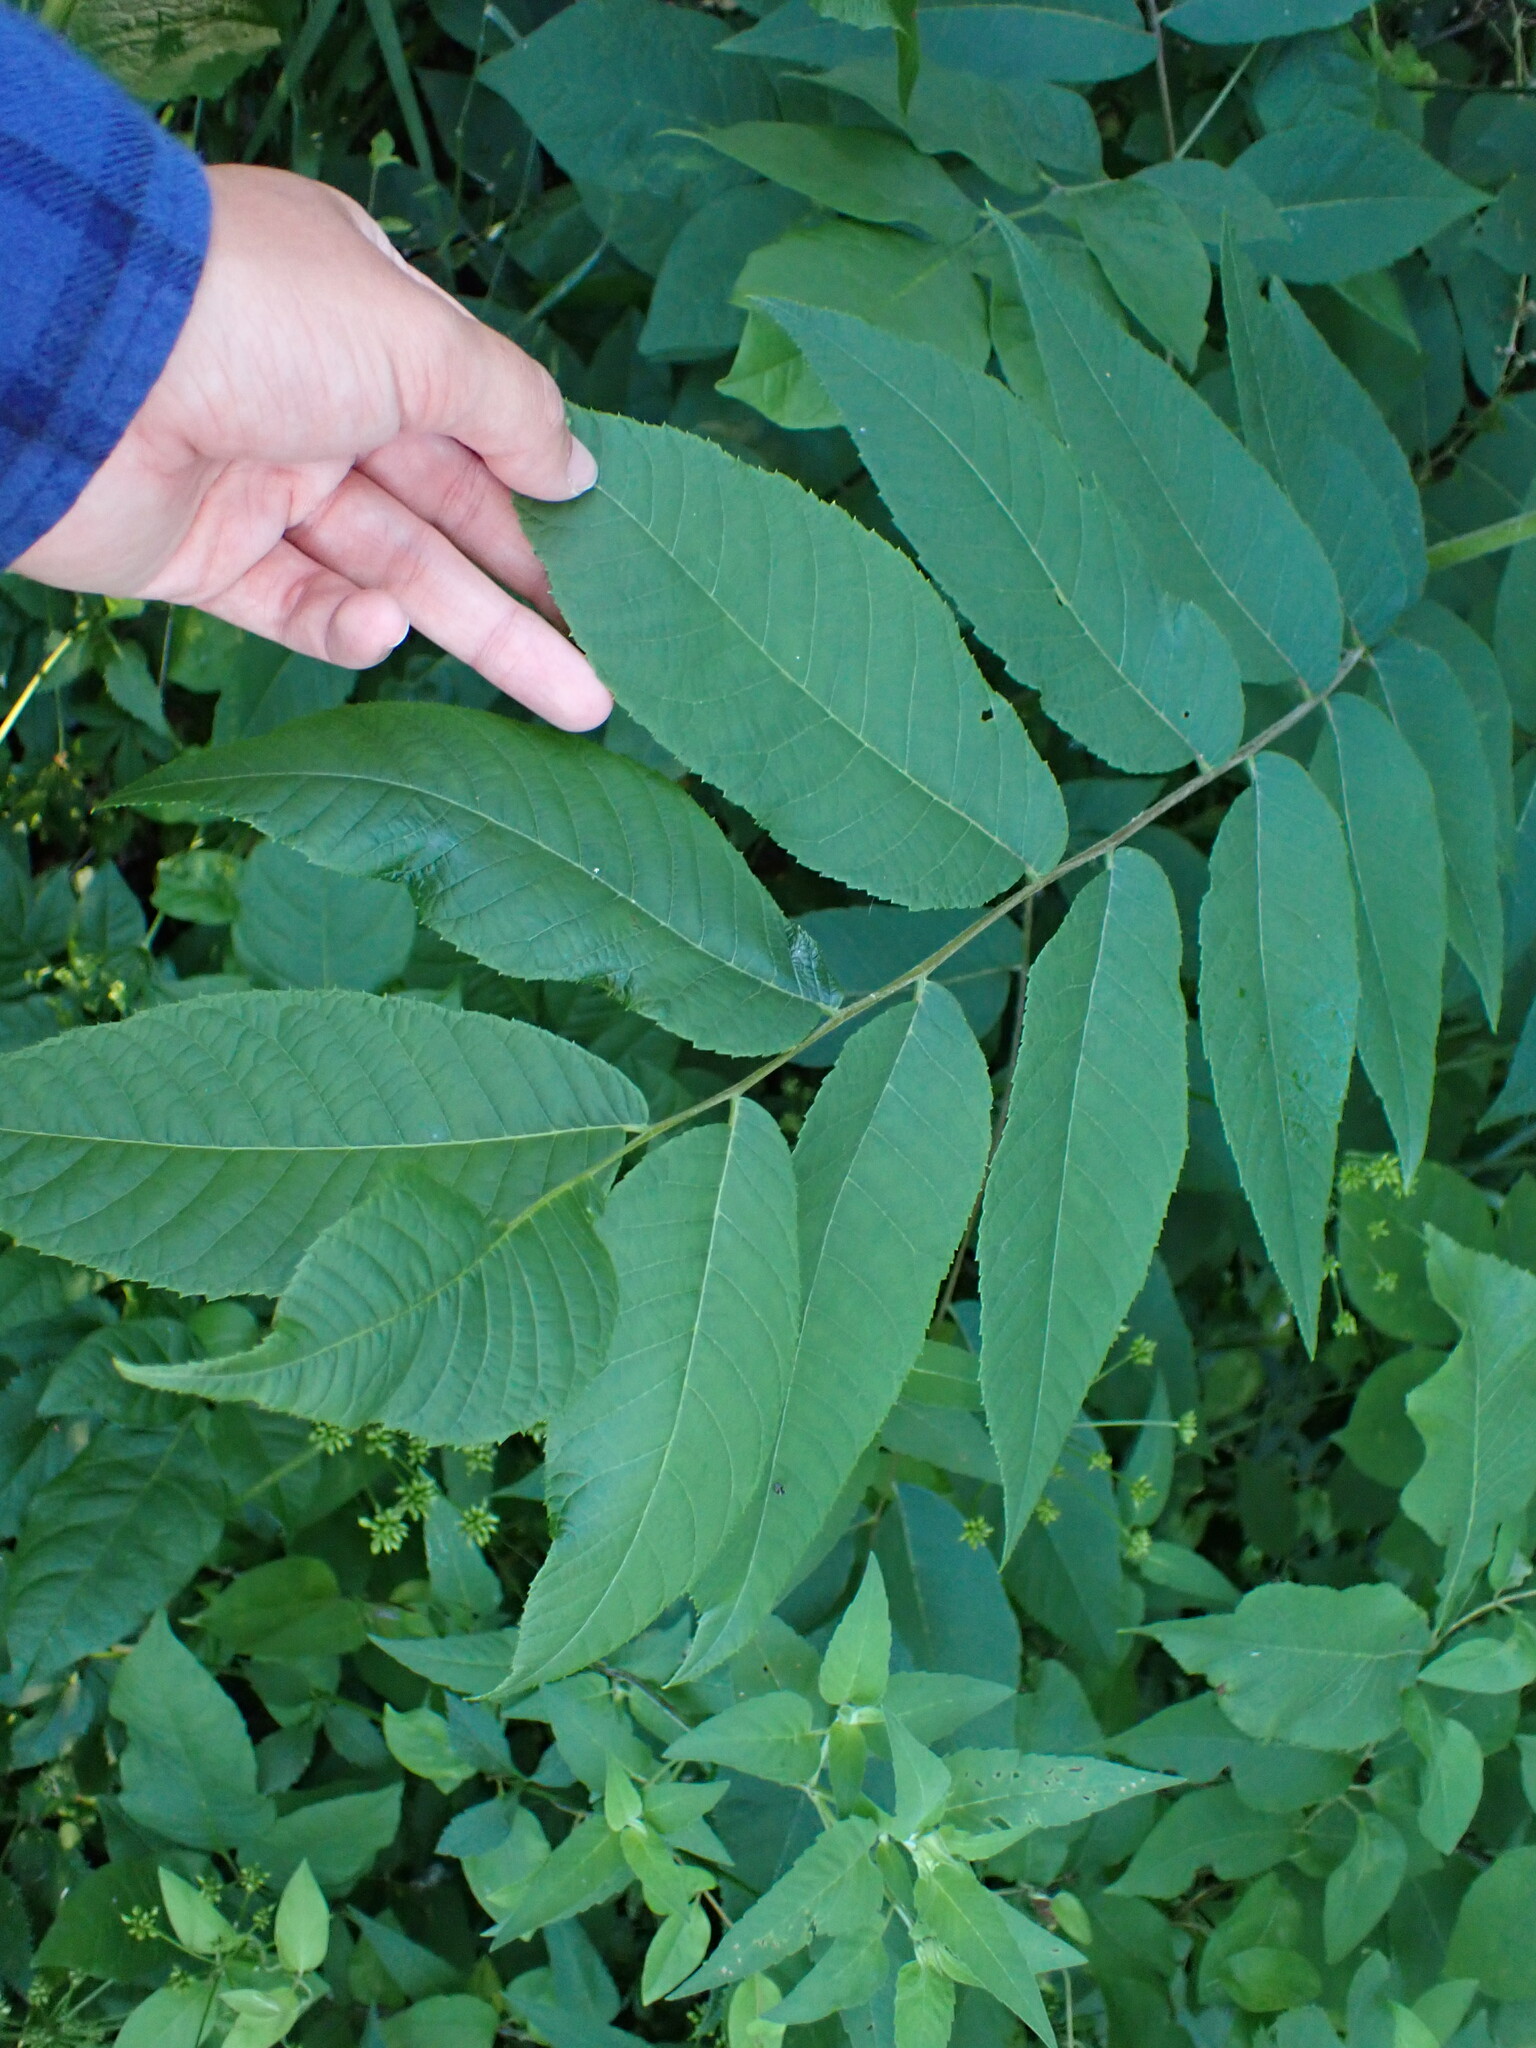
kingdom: Plantae
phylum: Tracheophyta
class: Magnoliopsida
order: Fagales
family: Juglandaceae
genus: Juglans
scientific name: Juglans nigra
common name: Black walnut
